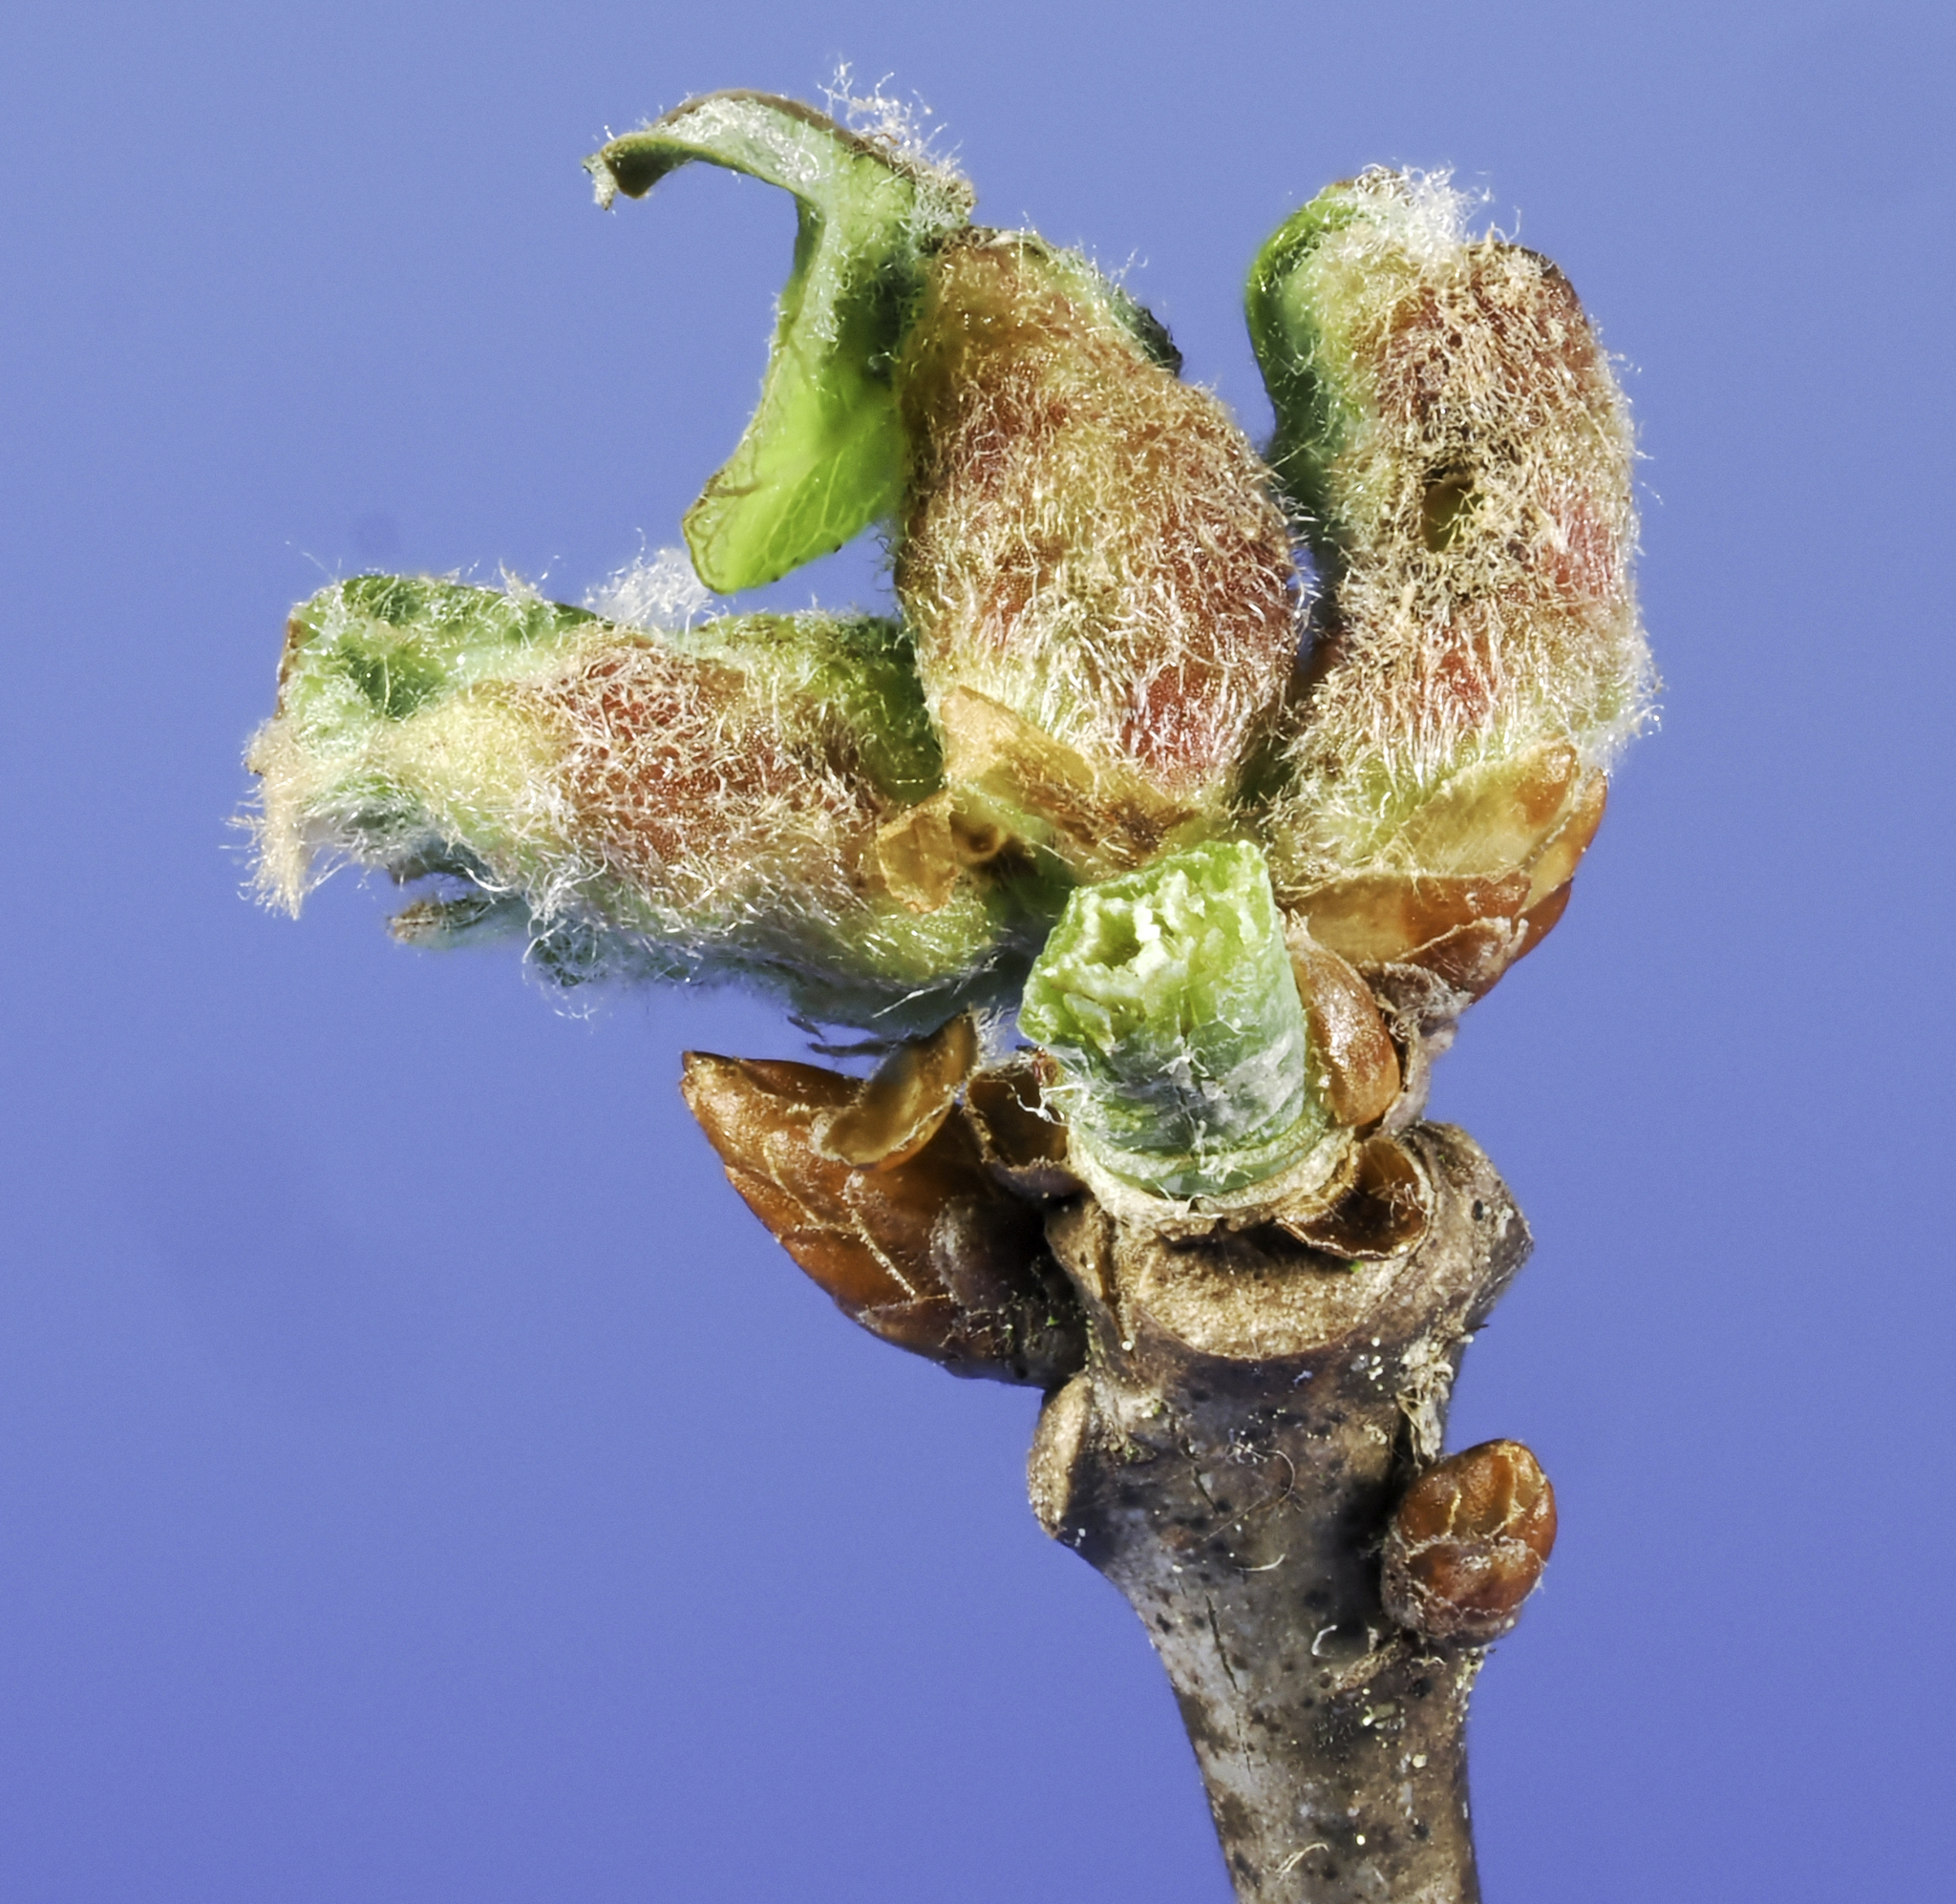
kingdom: Animalia
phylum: Arthropoda
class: Insecta
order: Hymenoptera
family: Cynipidae
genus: Neuroterus
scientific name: Neuroterus minutulus
